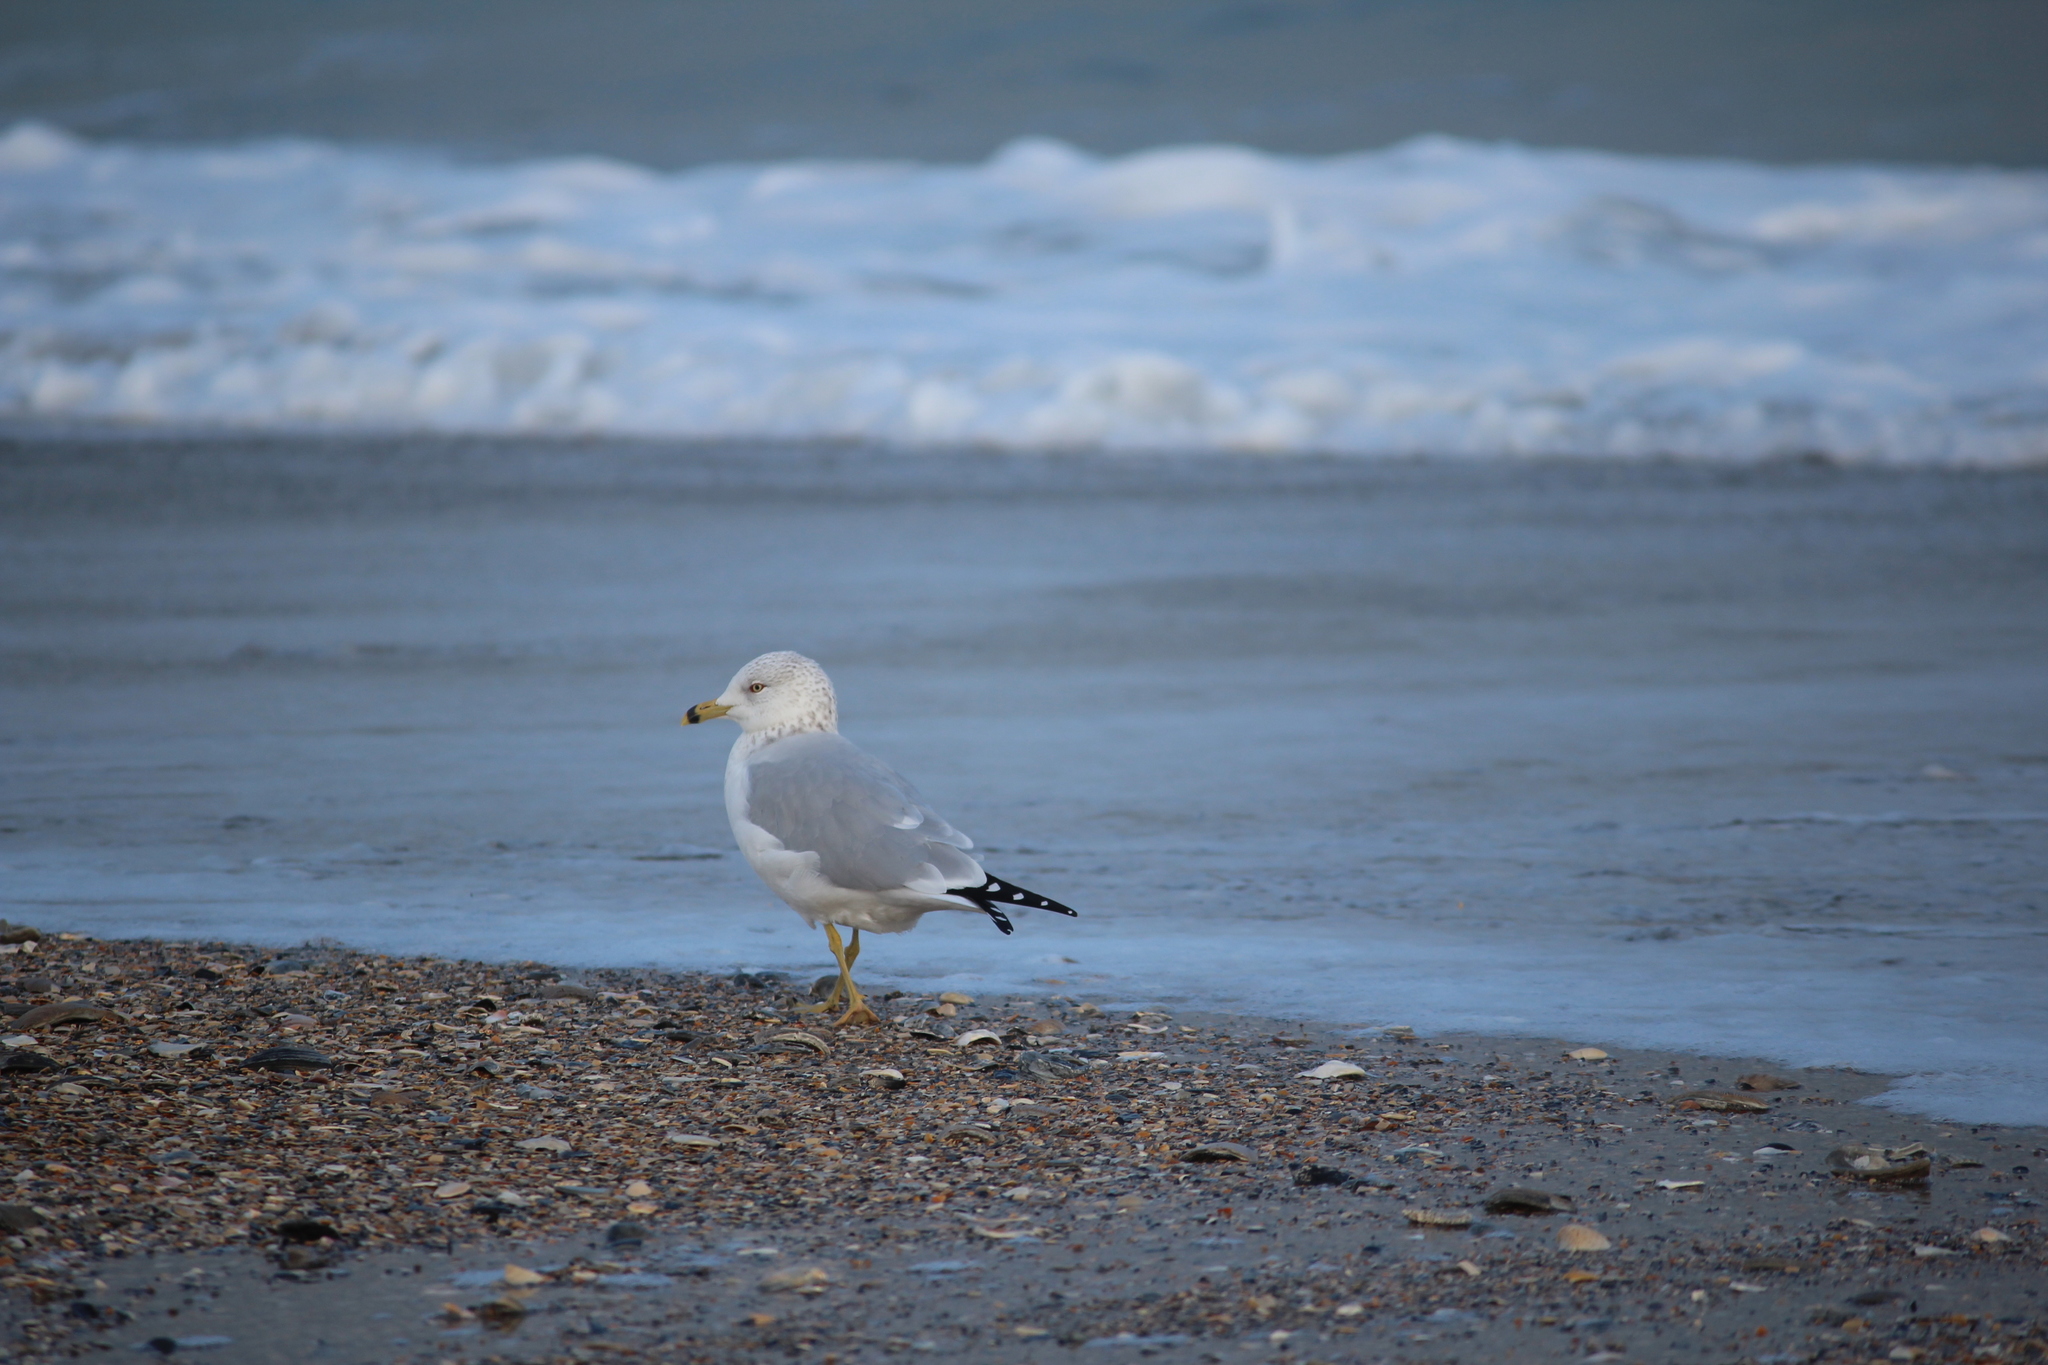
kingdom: Animalia
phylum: Chordata
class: Aves
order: Charadriiformes
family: Laridae
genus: Larus
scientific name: Larus delawarensis
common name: Ring-billed gull
